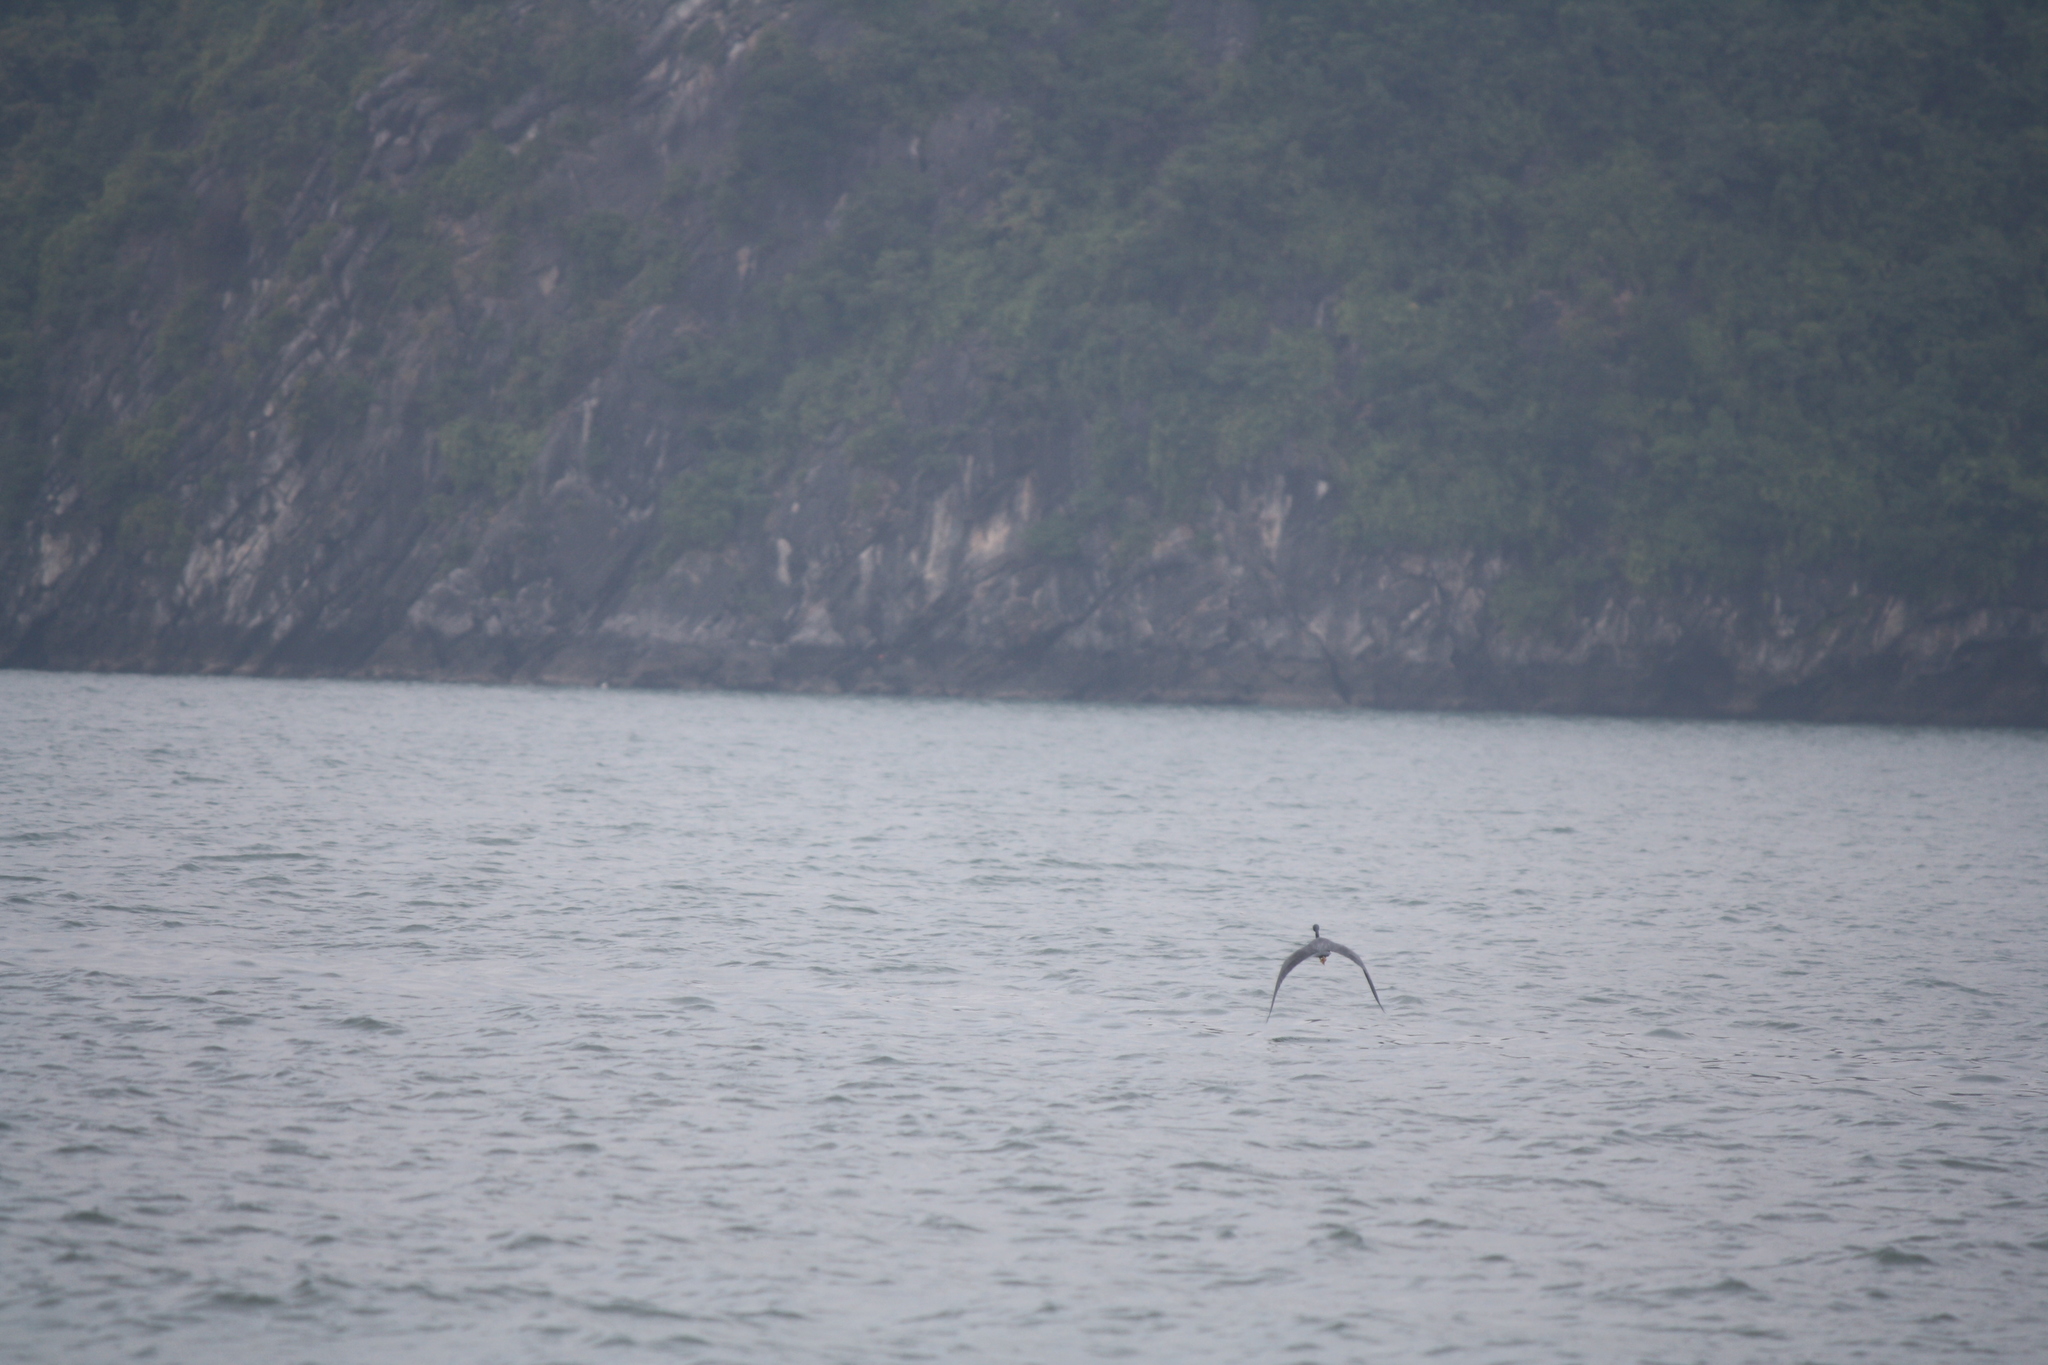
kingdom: Animalia
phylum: Chordata
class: Aves
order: Pelecaniformes
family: Ardeidae
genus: Egretta
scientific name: Egretta sacra
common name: Pacific reef heron
